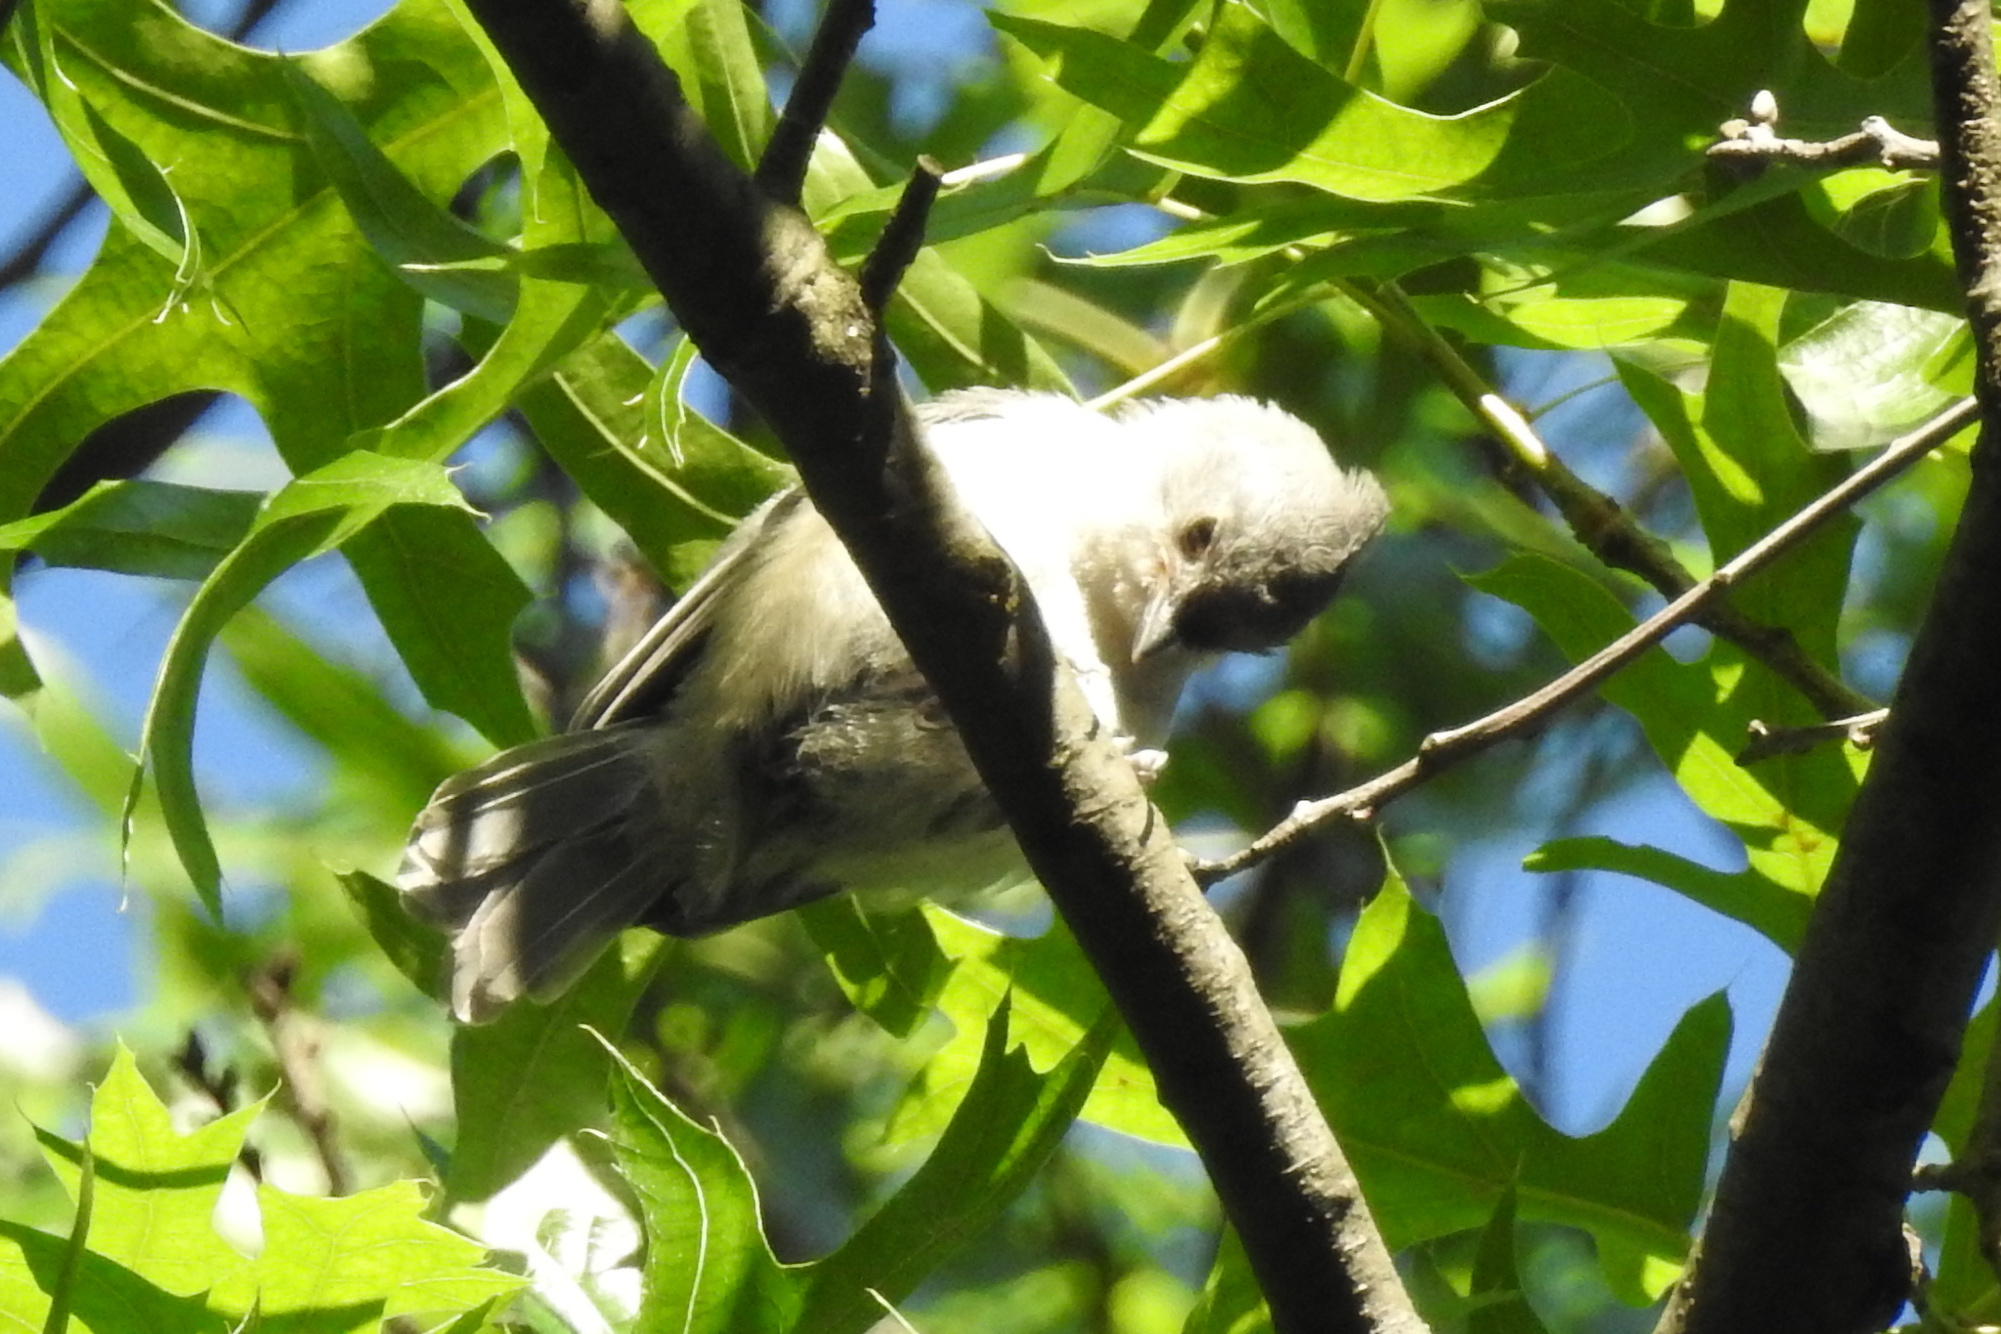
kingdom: Animalia
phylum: Chordata
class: Aves
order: Passeriformes
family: Paridae
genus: Baeolophus
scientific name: Baeolophus bicolor
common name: Tufted titmouse
